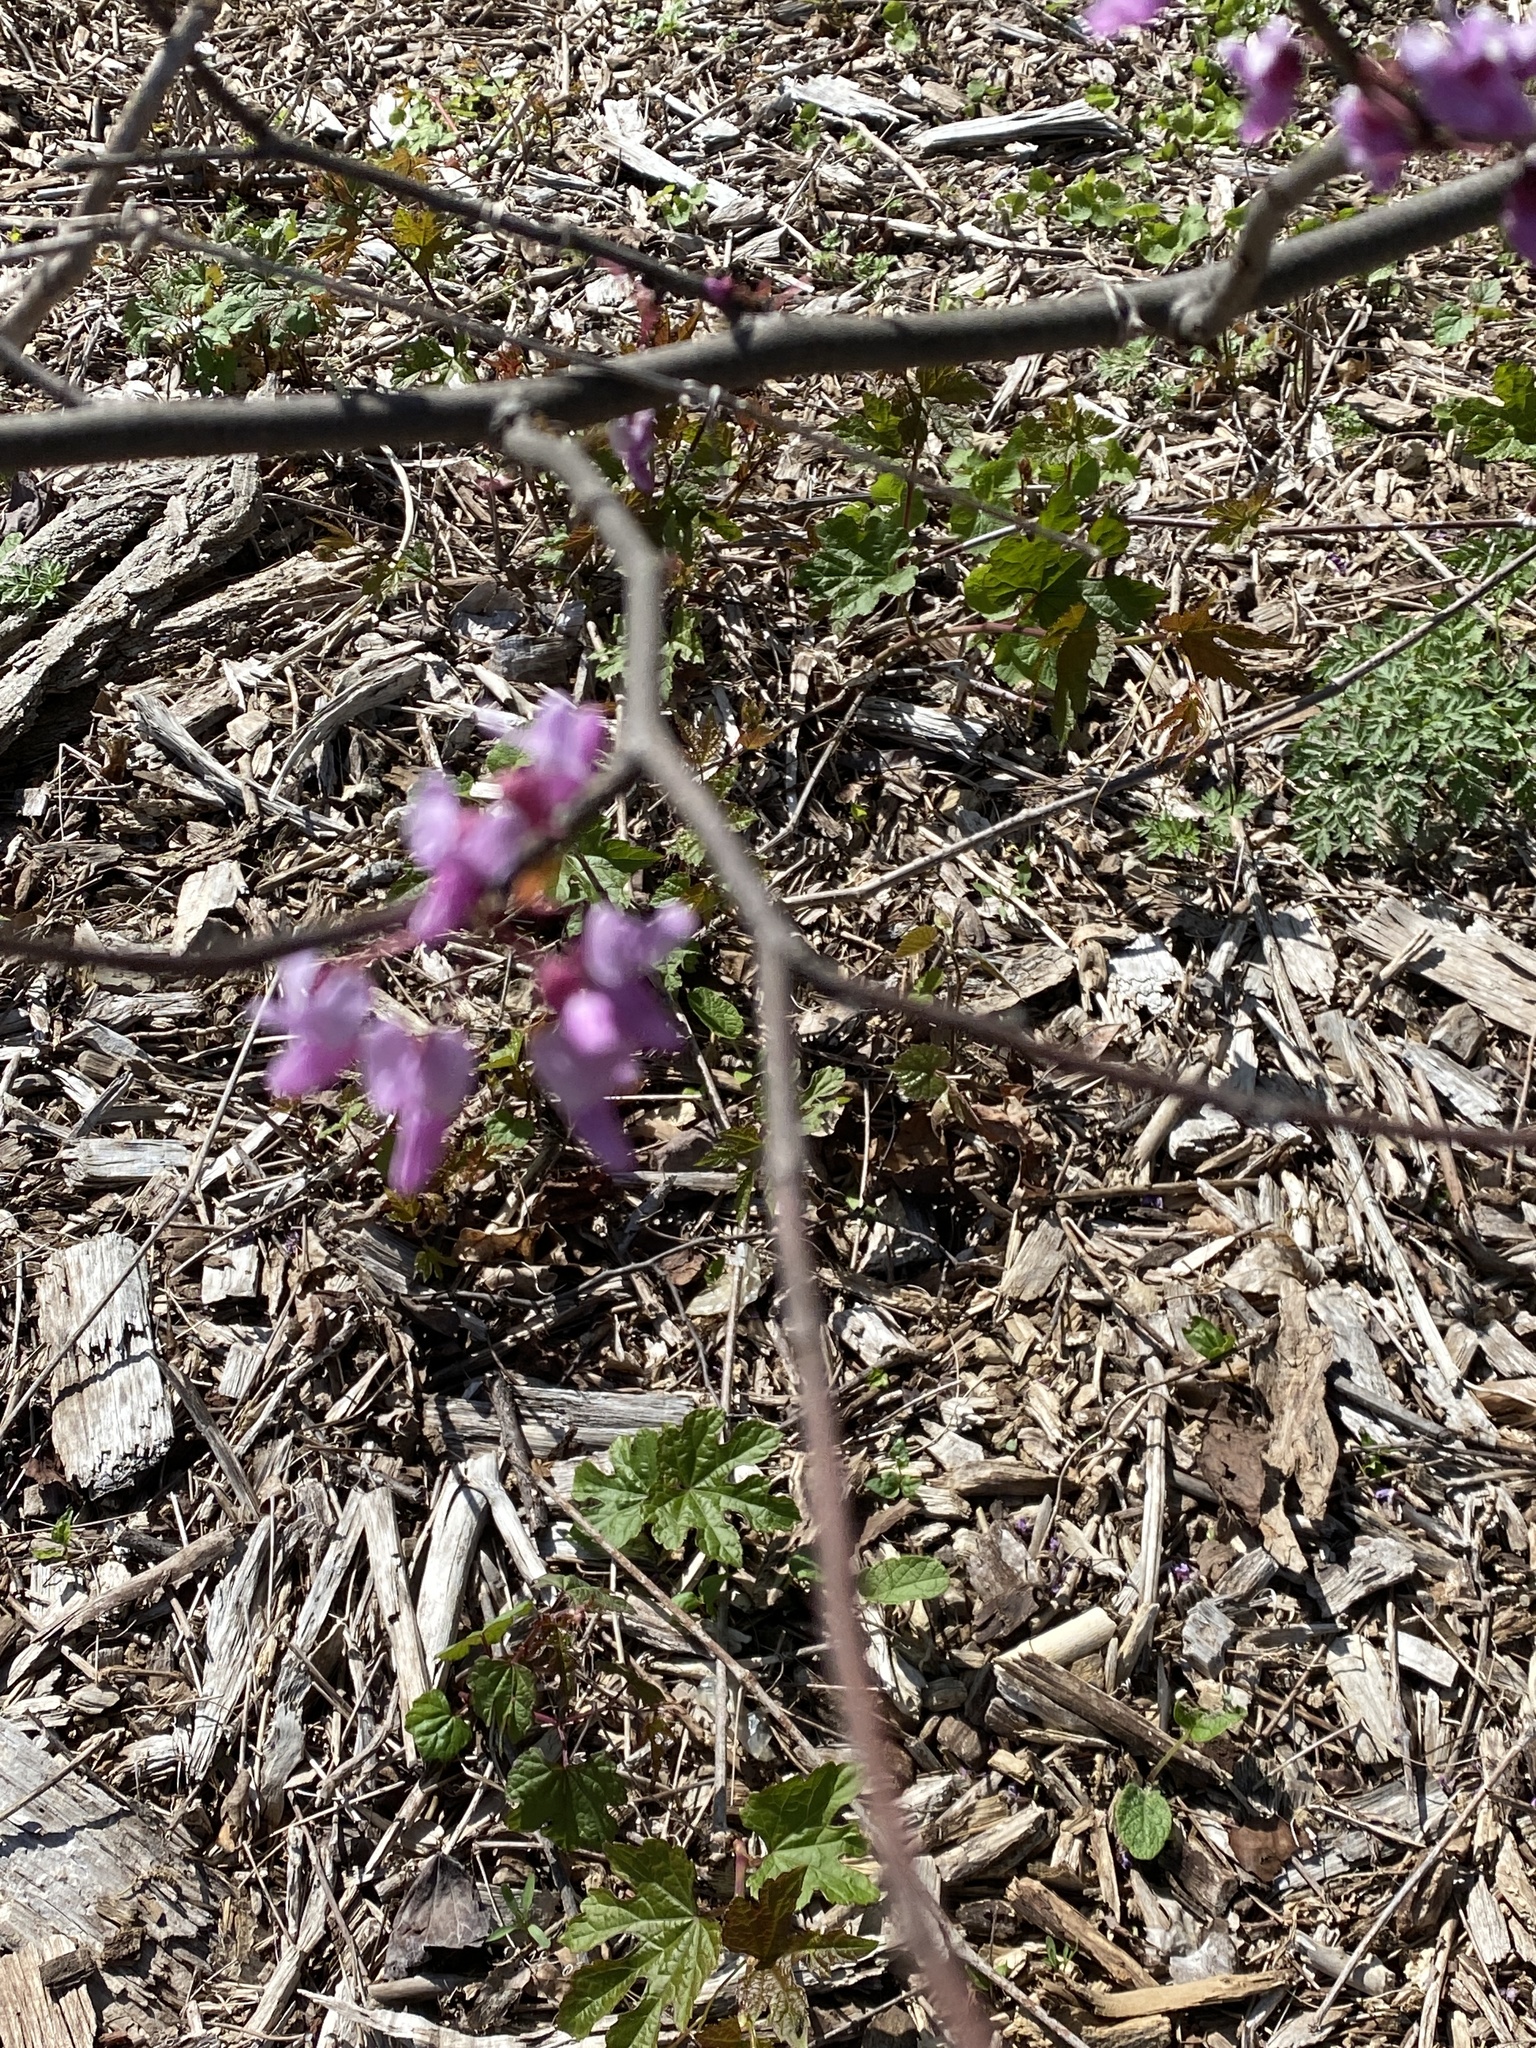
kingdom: Plantae
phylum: Tracheophyta
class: Magnoliopsida
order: Fabales
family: Fabaceae
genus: Cercis
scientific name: Cercis canadensis
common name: Eastern redbud
